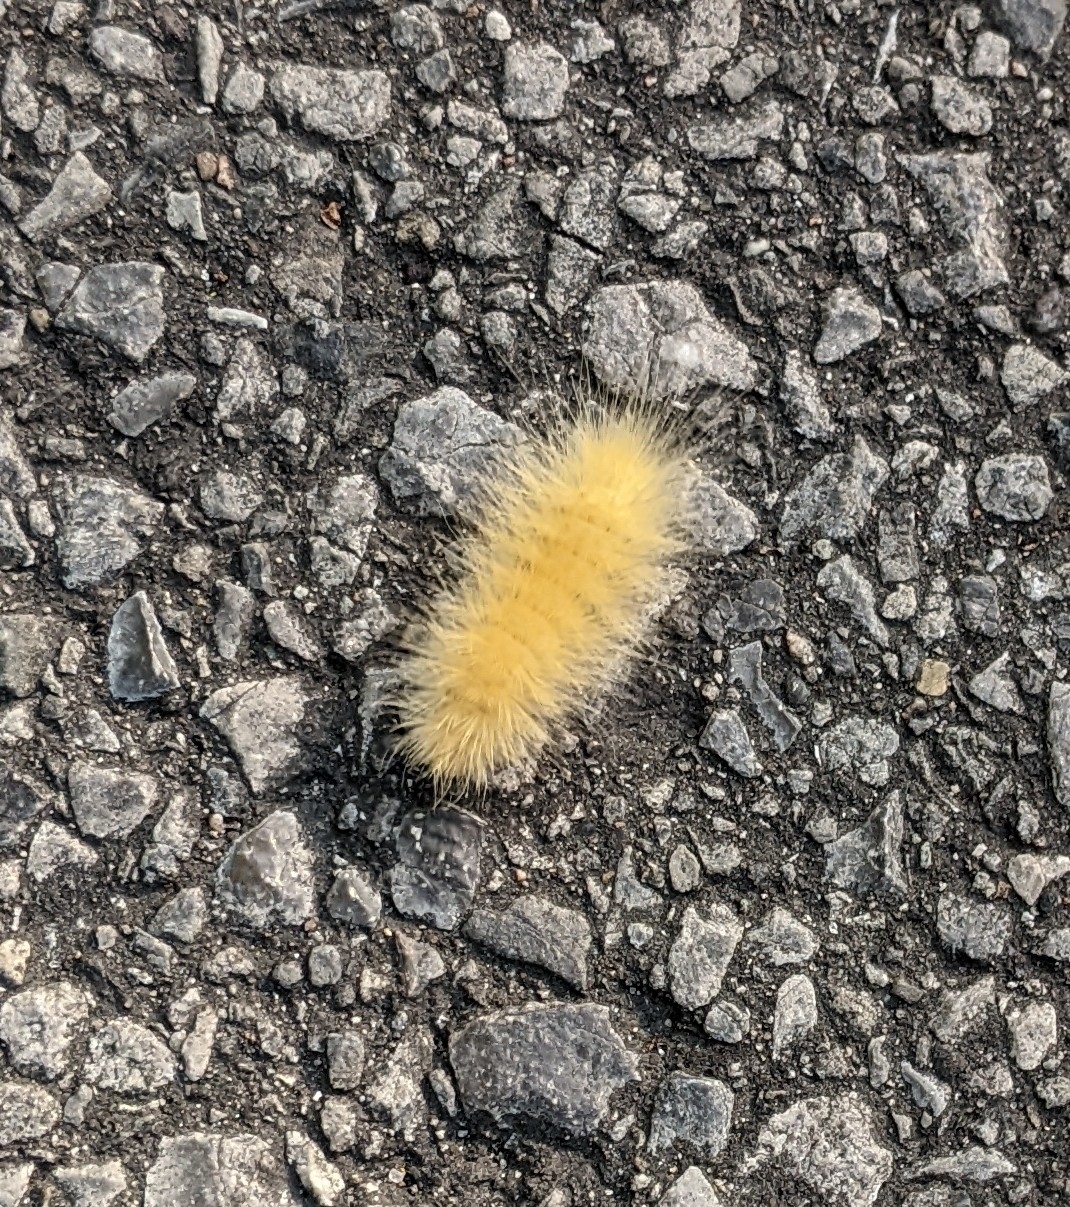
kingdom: Animalia
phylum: Arthropoda
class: Insecta
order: Lepidoptera
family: Erebidae
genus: Spilosoma
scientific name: Spilosoma virginica
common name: Virginia tiger moth
